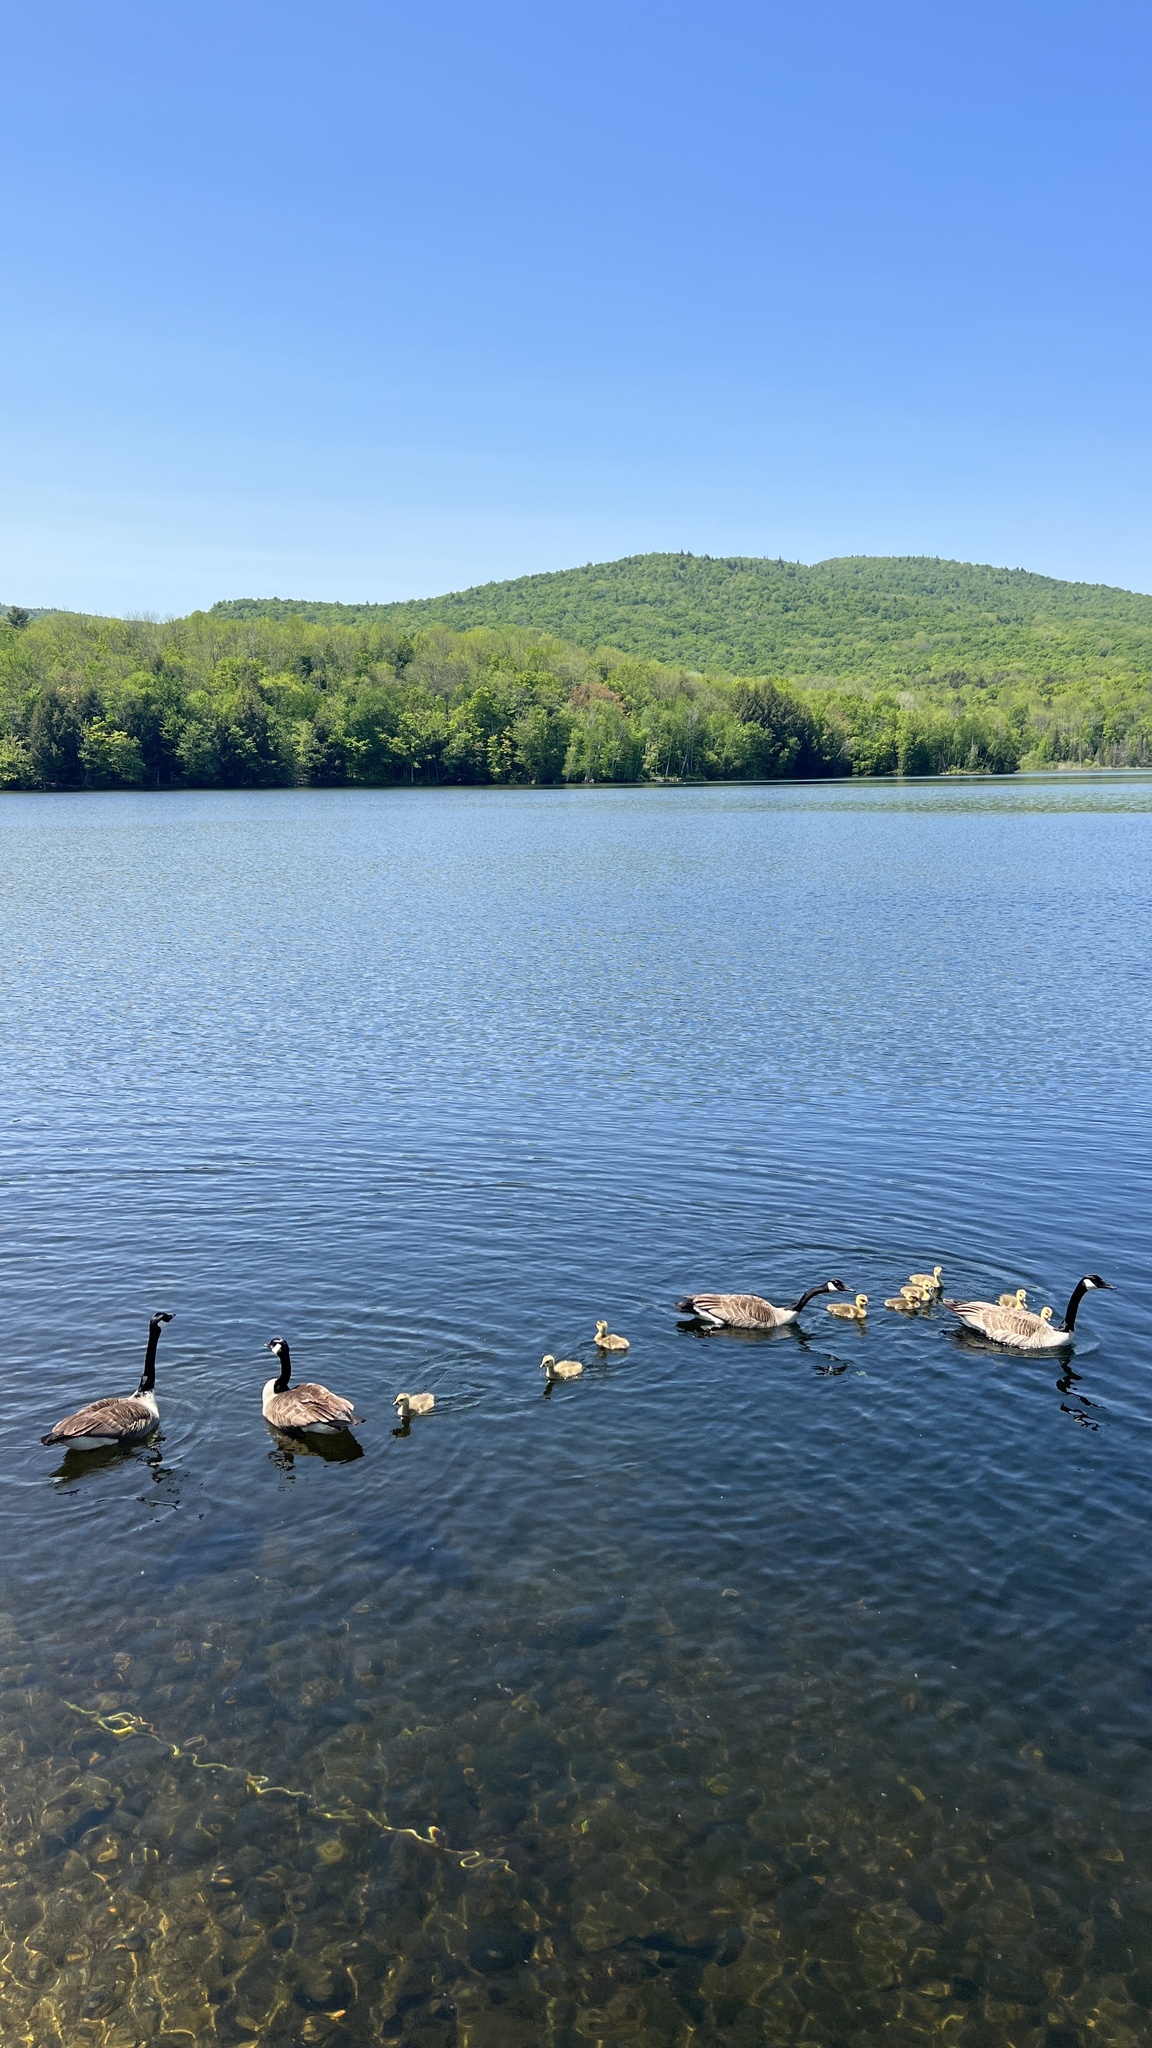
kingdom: Animalia
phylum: Chordata
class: Aves
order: Anseriformes
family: Anatidae
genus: Branta
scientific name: Branta canadensis
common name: Canada goose
